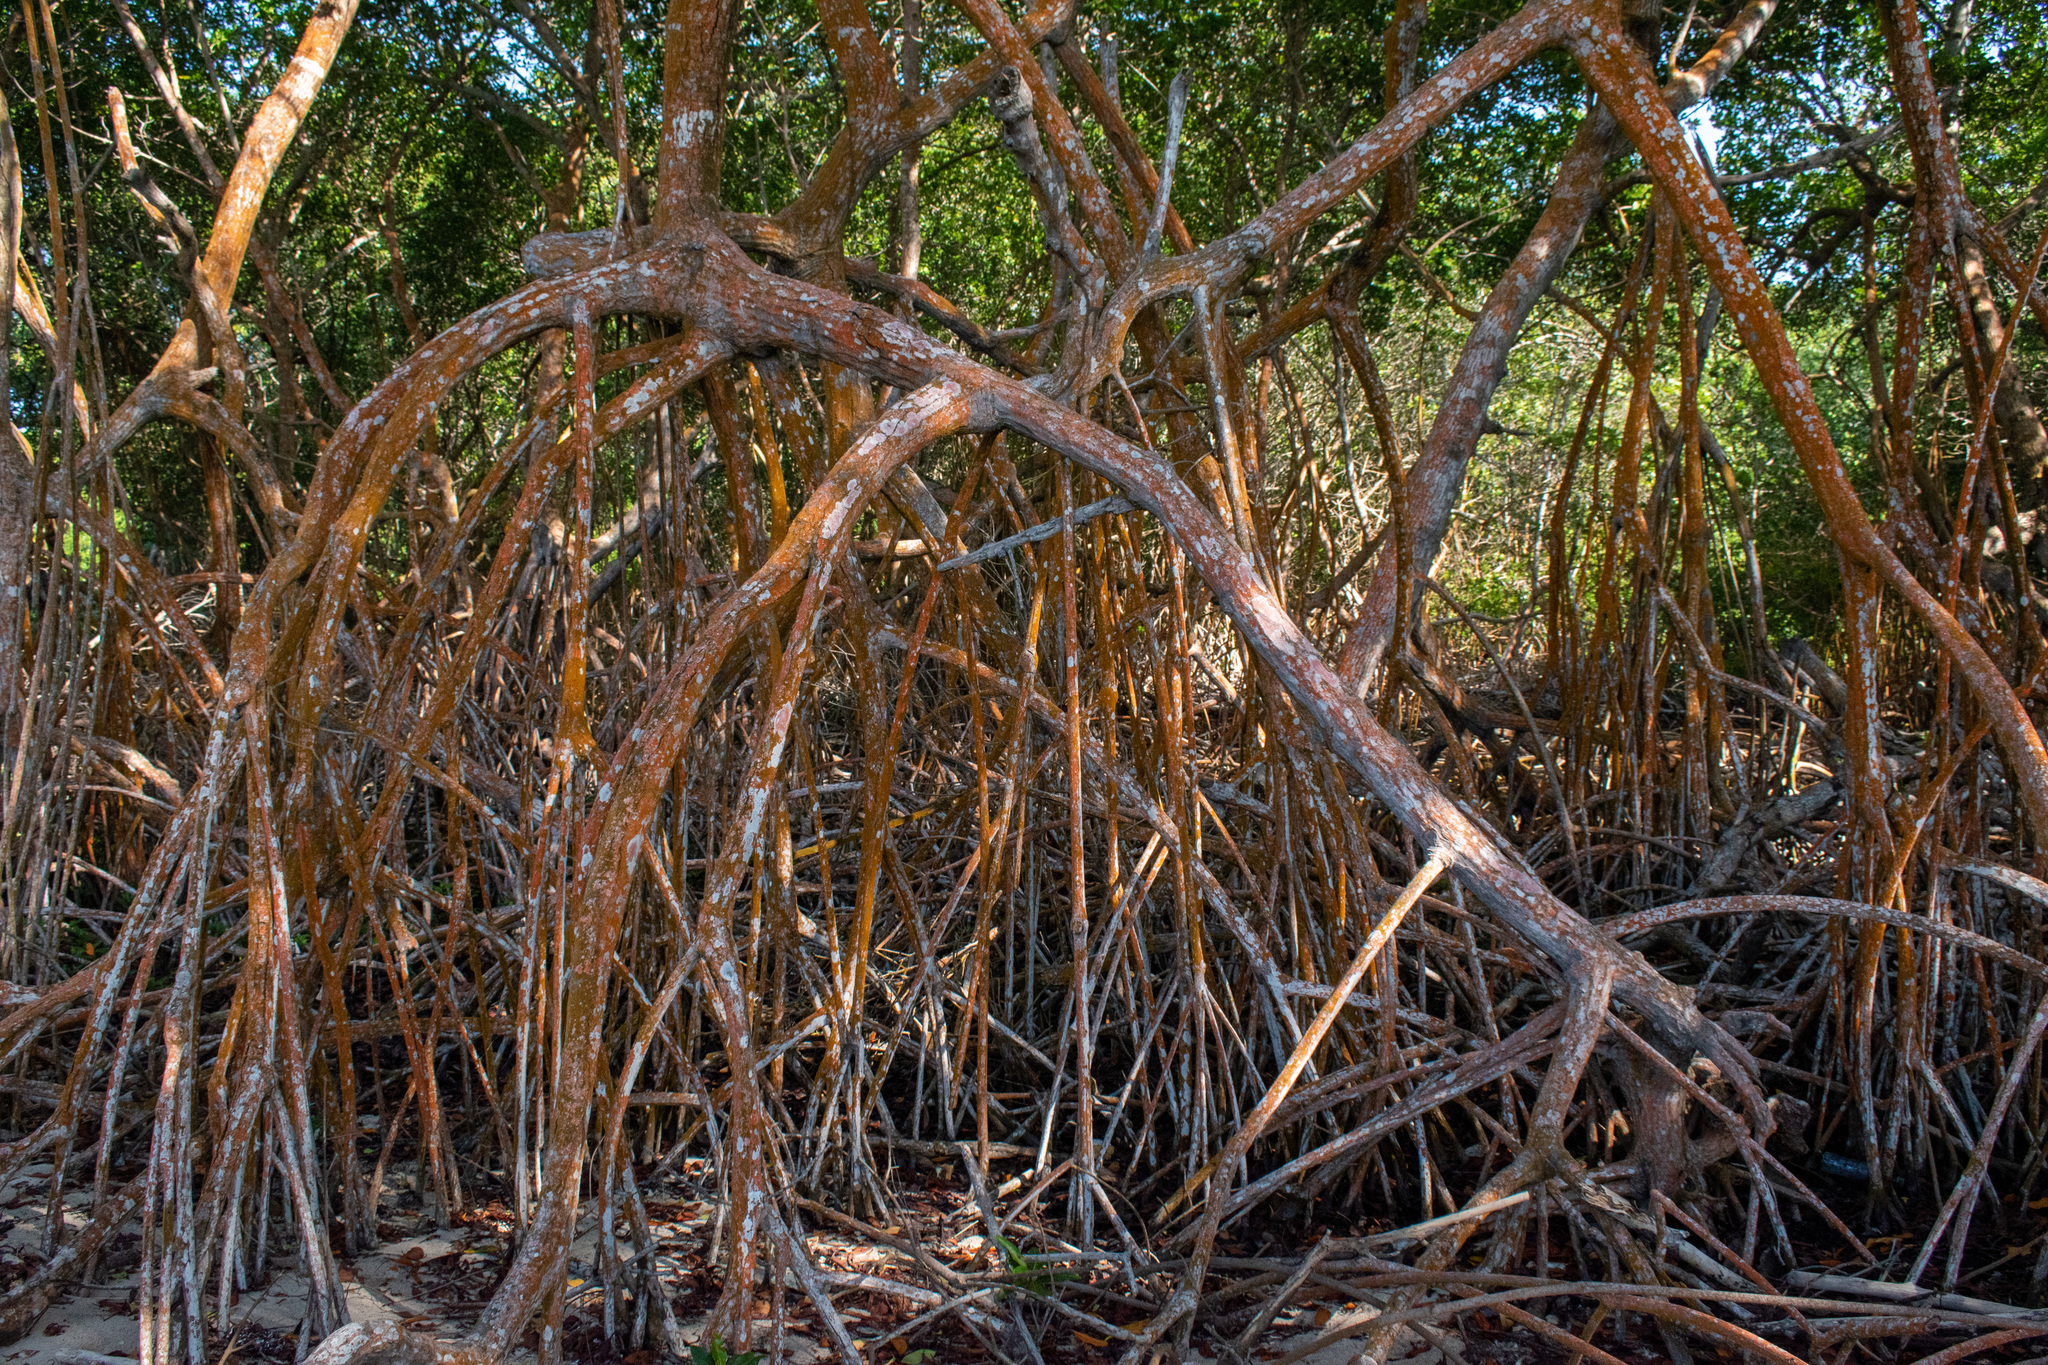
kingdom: Plantae
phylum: Tracheophyta
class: Magnoliopsida
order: Malpighiales
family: Rhizophoraceae
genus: Rhizophora
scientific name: Rhizophora mangle
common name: Red mangrove
